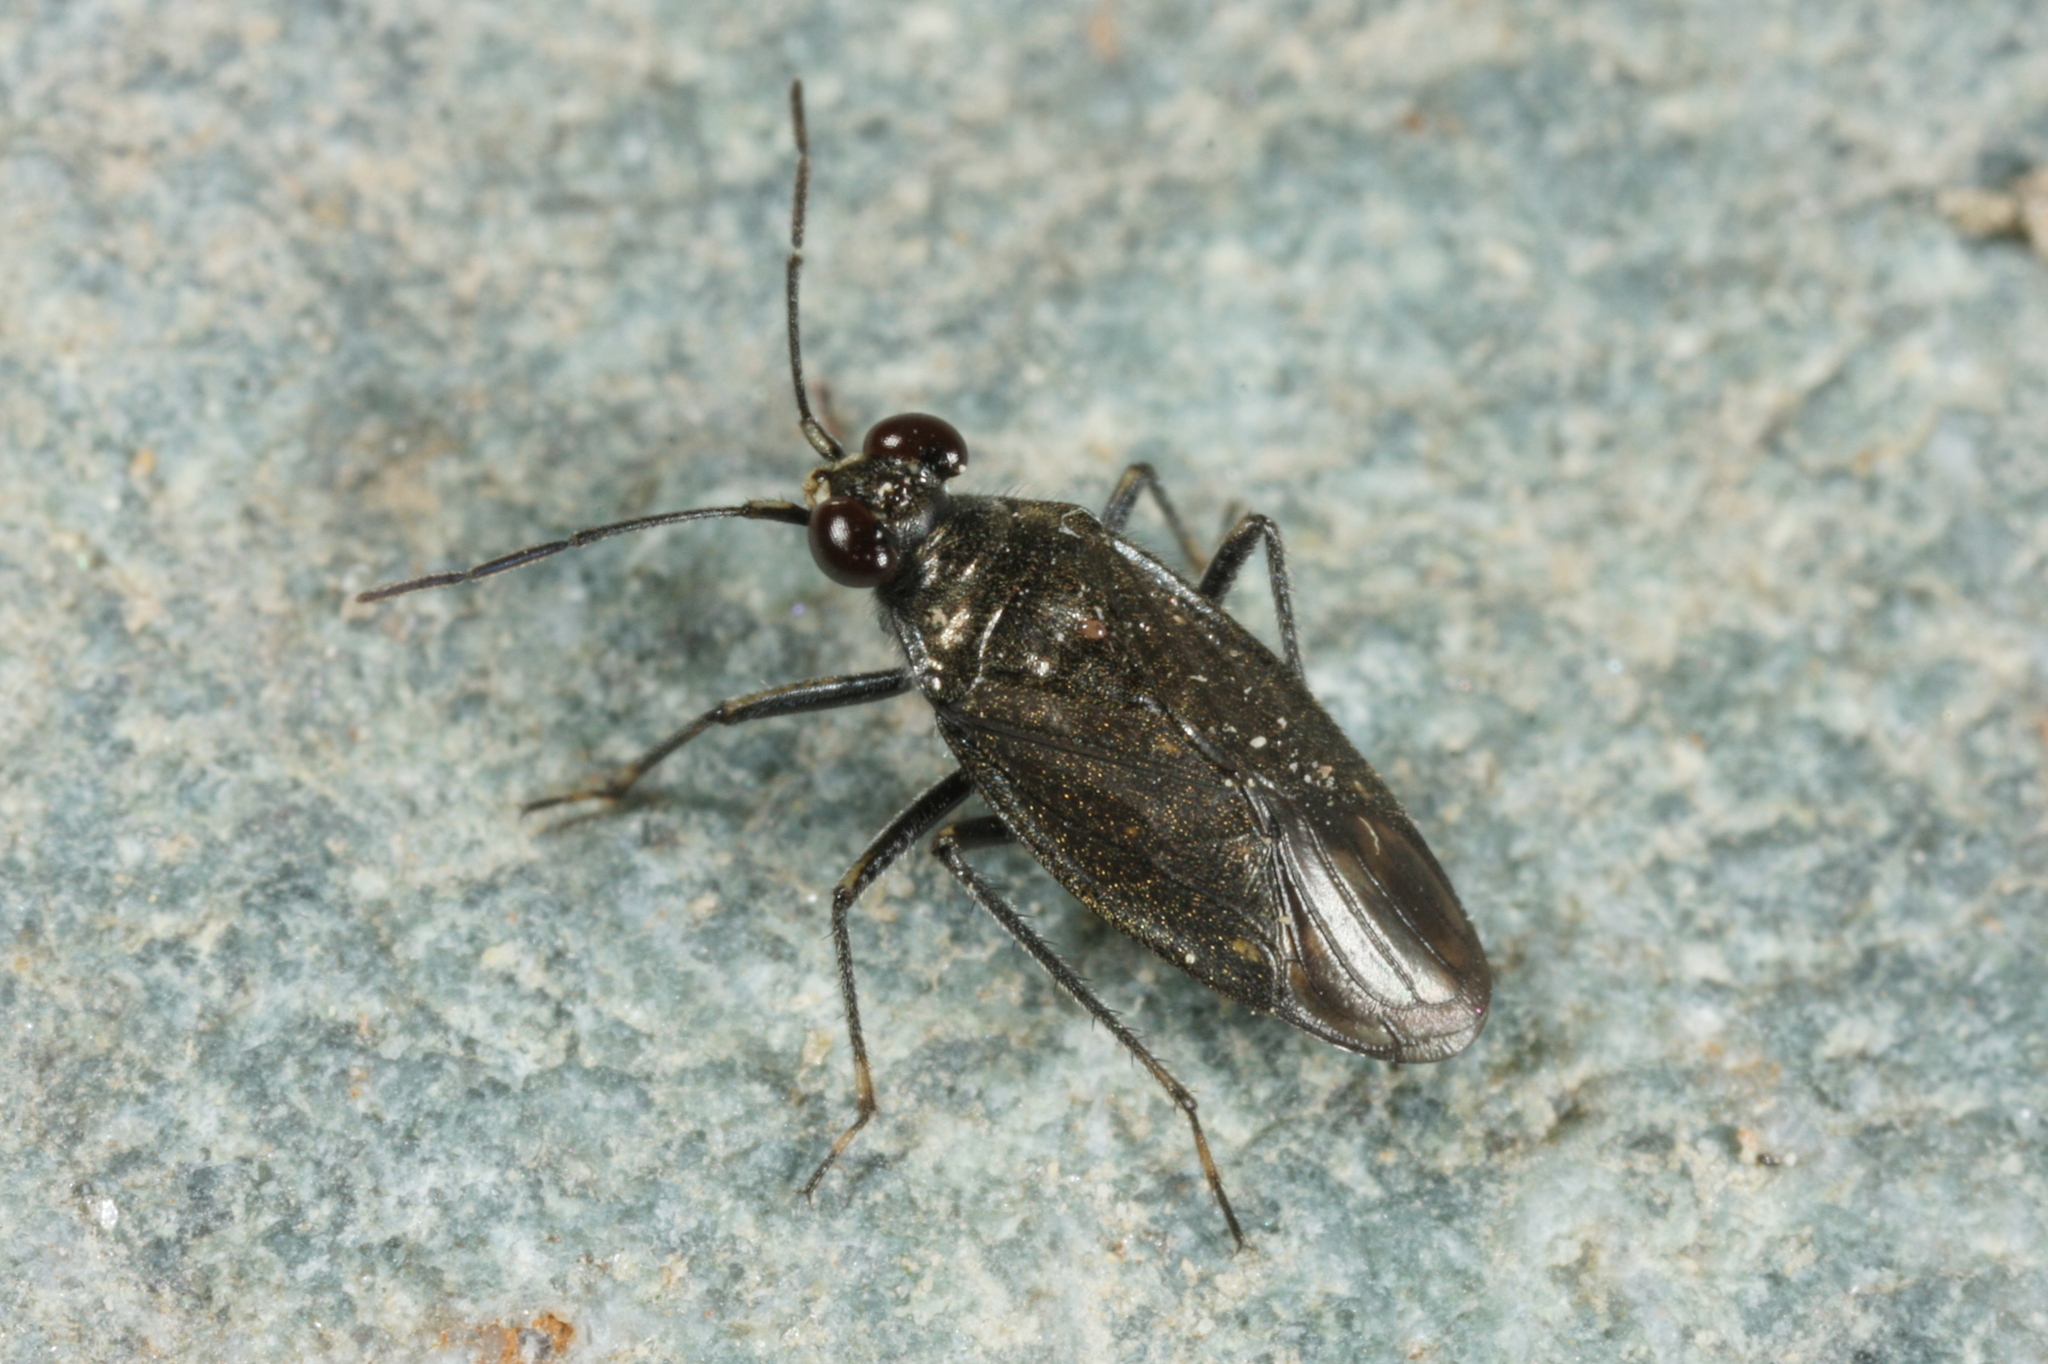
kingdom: Animalia
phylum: Arthropoda
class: Insecta
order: Hemiptera
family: Saldidae
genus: Macrosaldula
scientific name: Macrosaldula scotica
